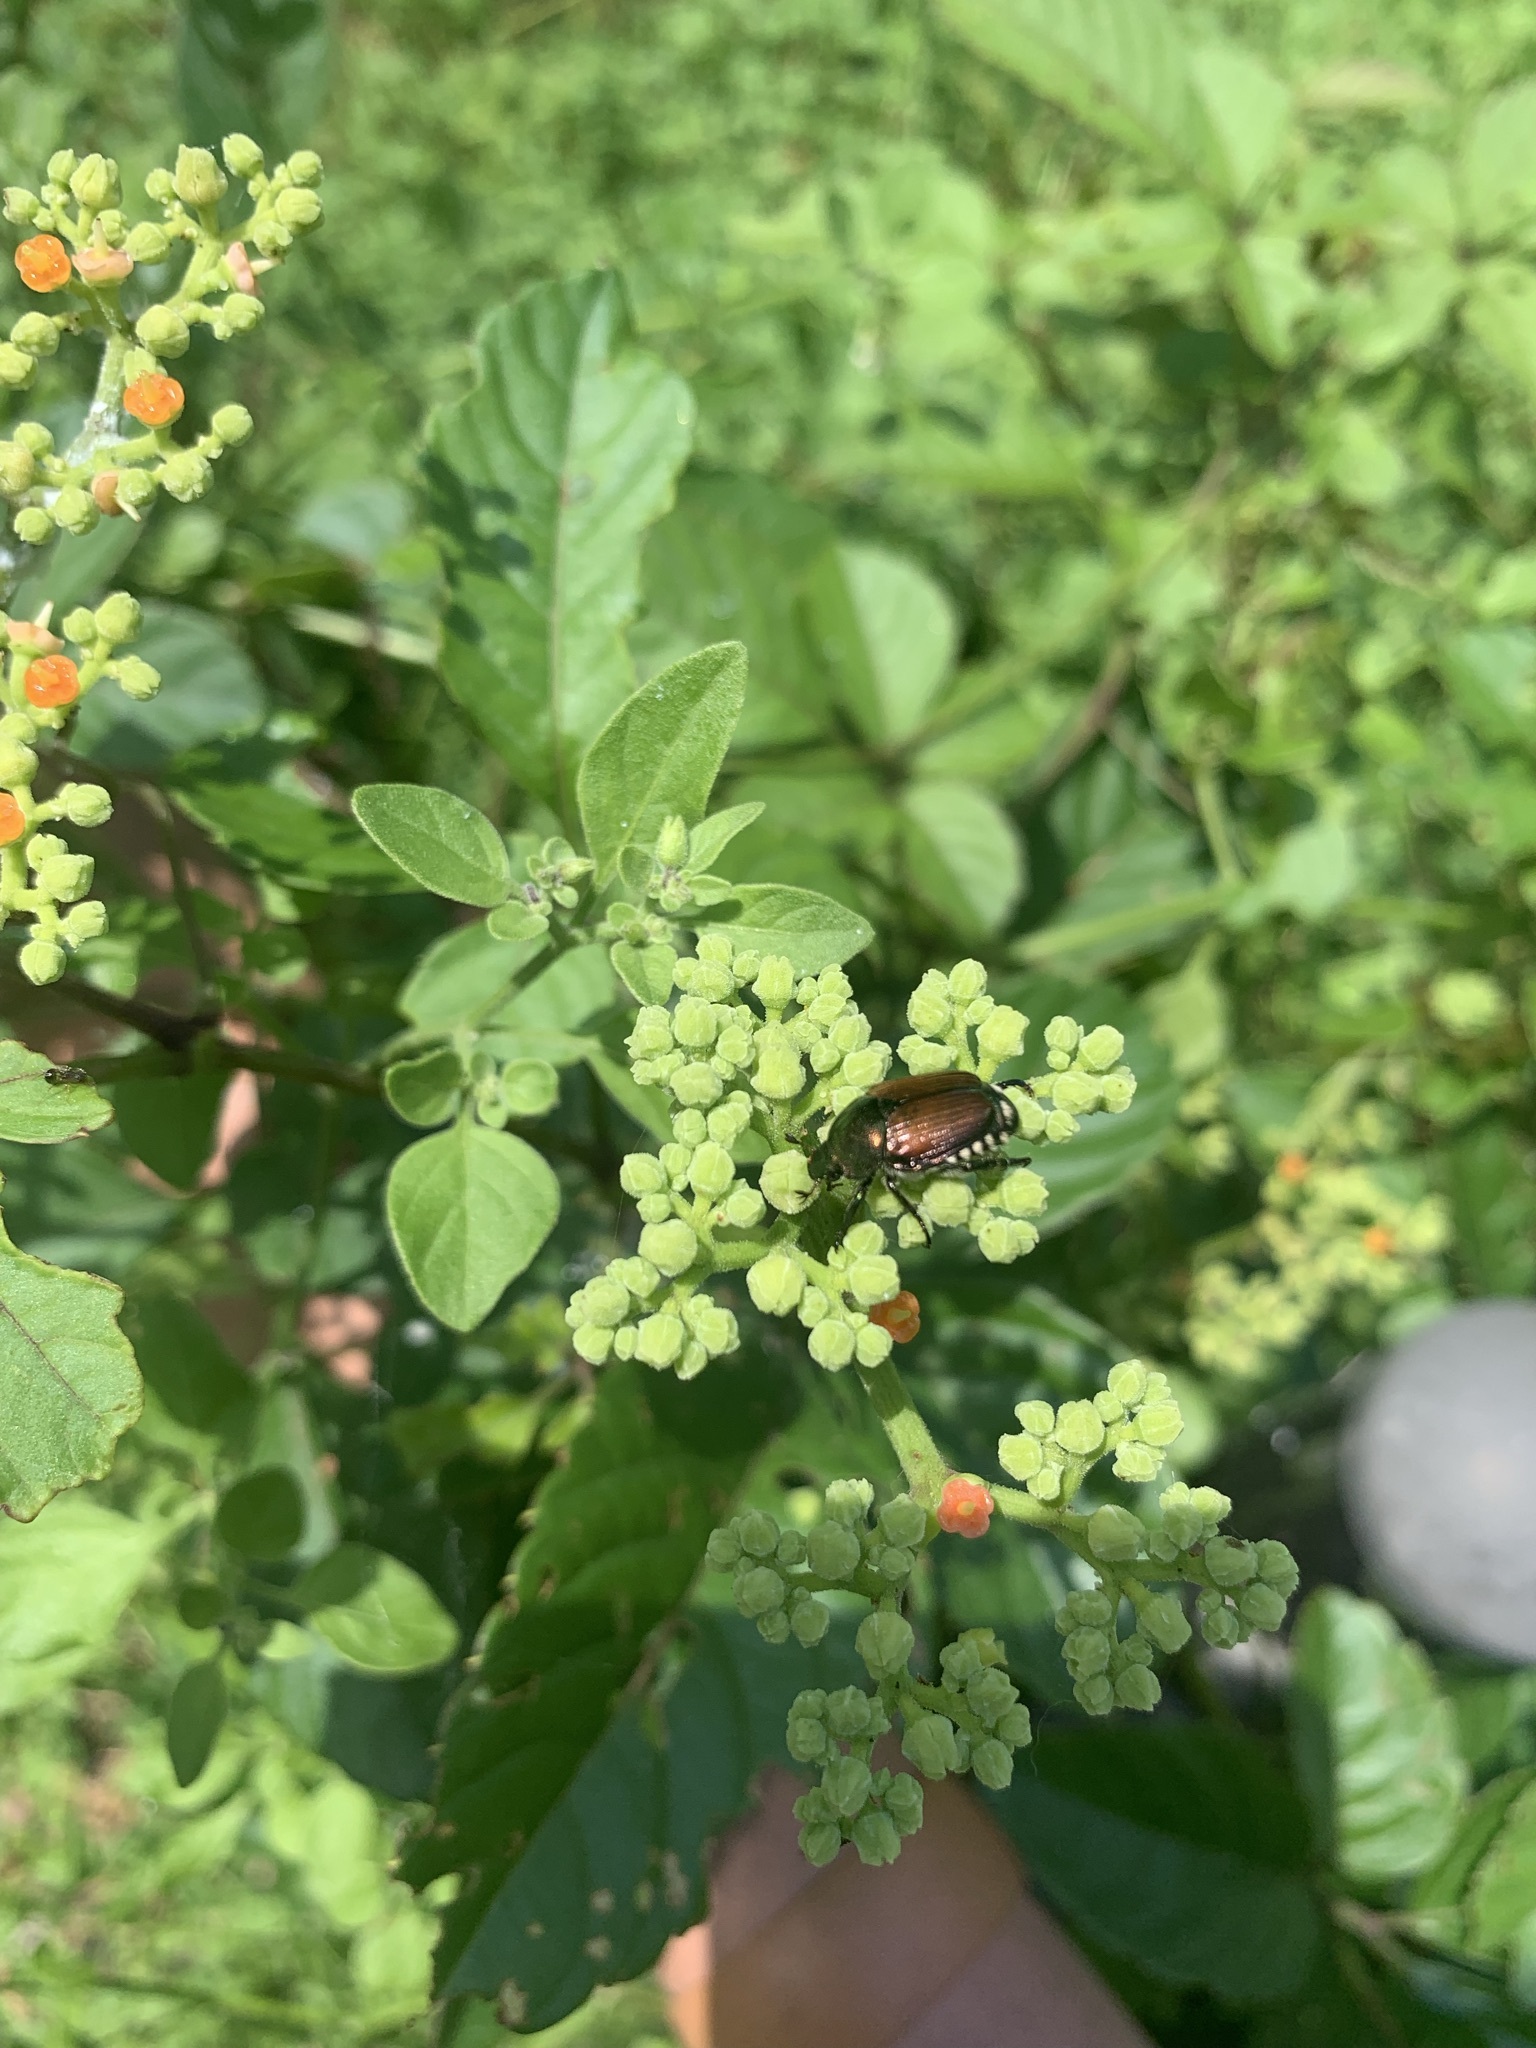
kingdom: Animalia
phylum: Arthropoda
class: Insecta
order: Coleoptera
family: Scarabaeidae
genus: Popillia
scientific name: Popillia japonica
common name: Japanese beetle
